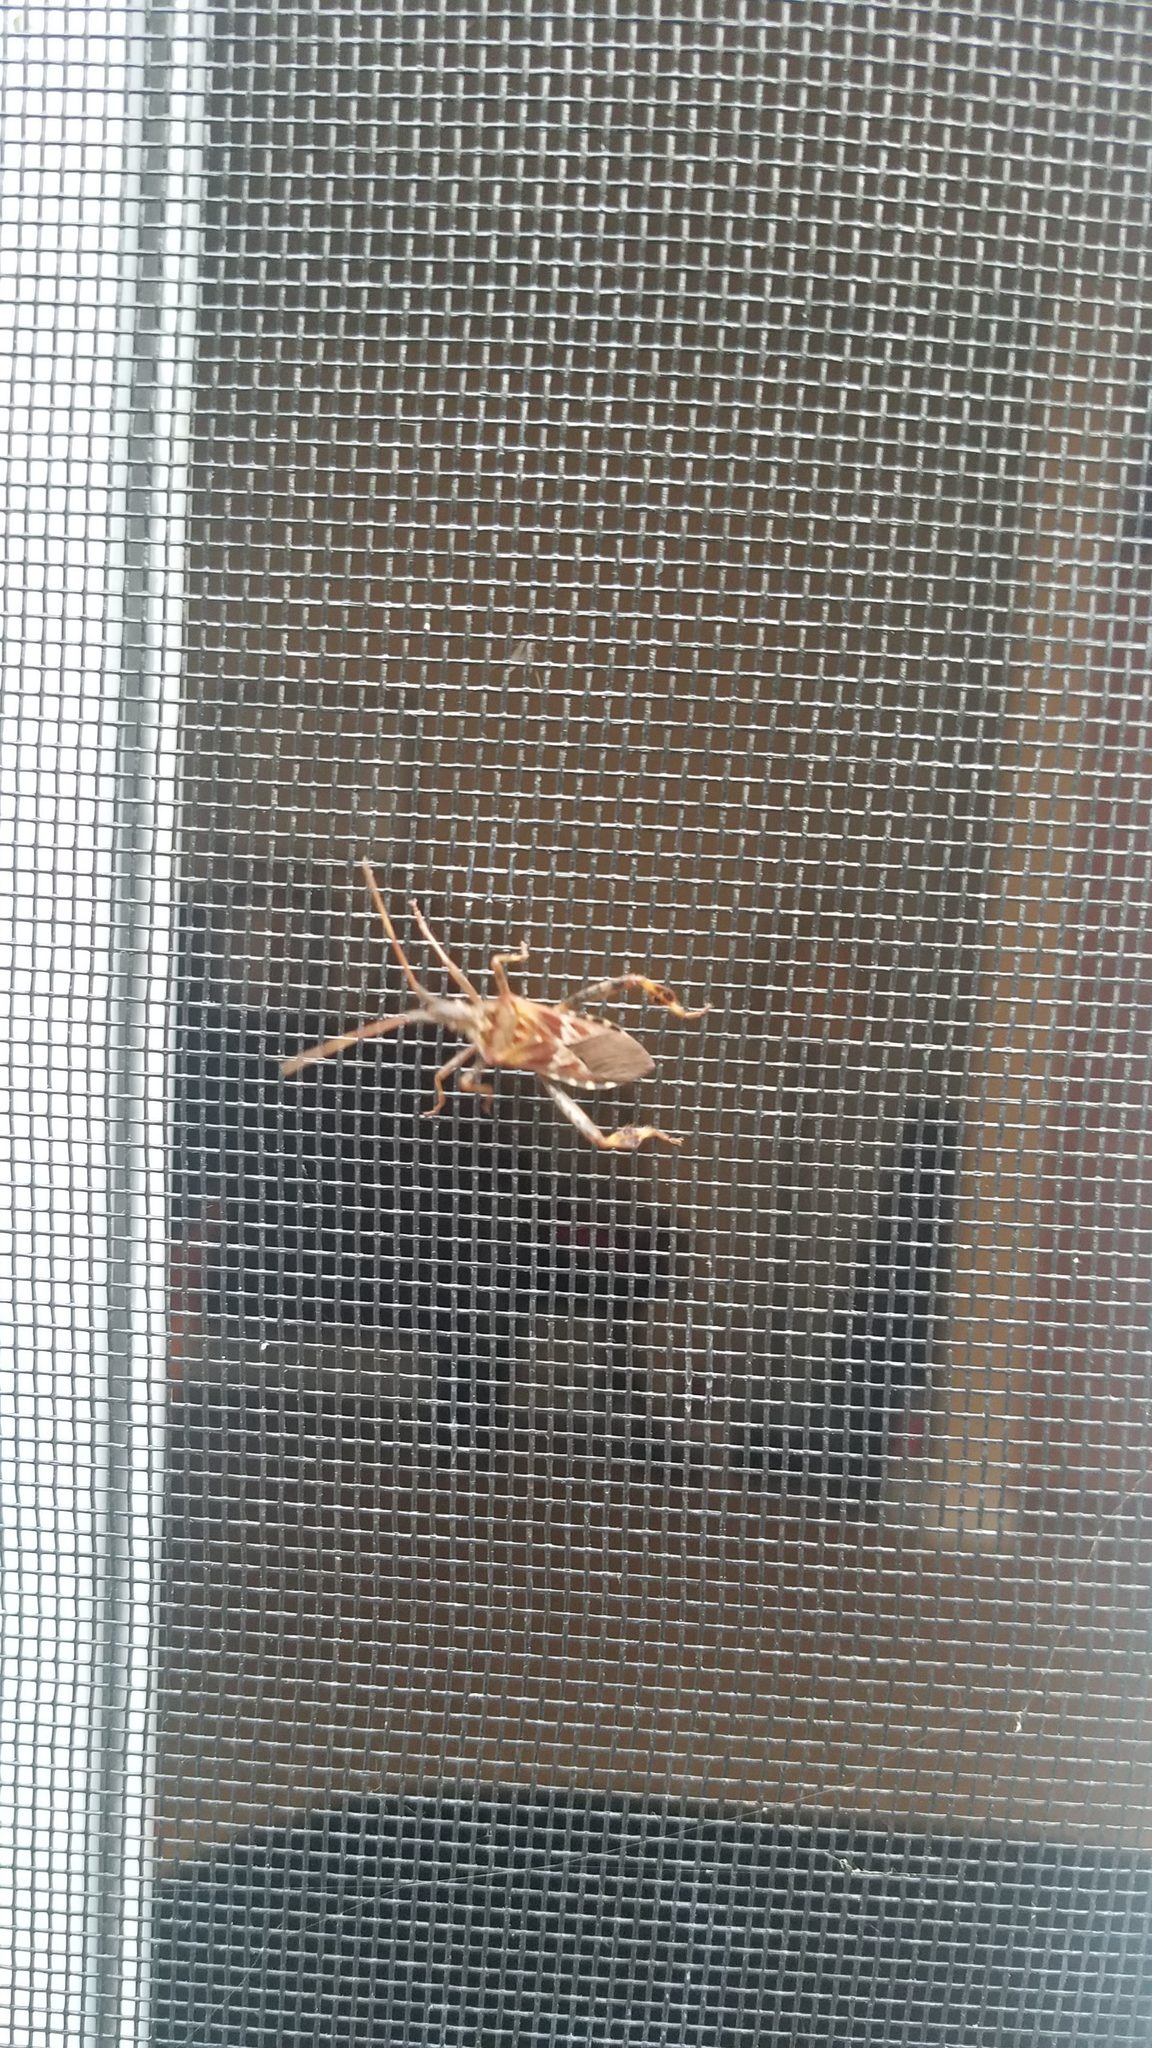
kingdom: Animalia
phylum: Arthropoda
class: Insecta
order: Hemiptera
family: Coreidae
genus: Leptoglossus
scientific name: Leptoglossus occidentalis
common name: Western conifer-seed bug
